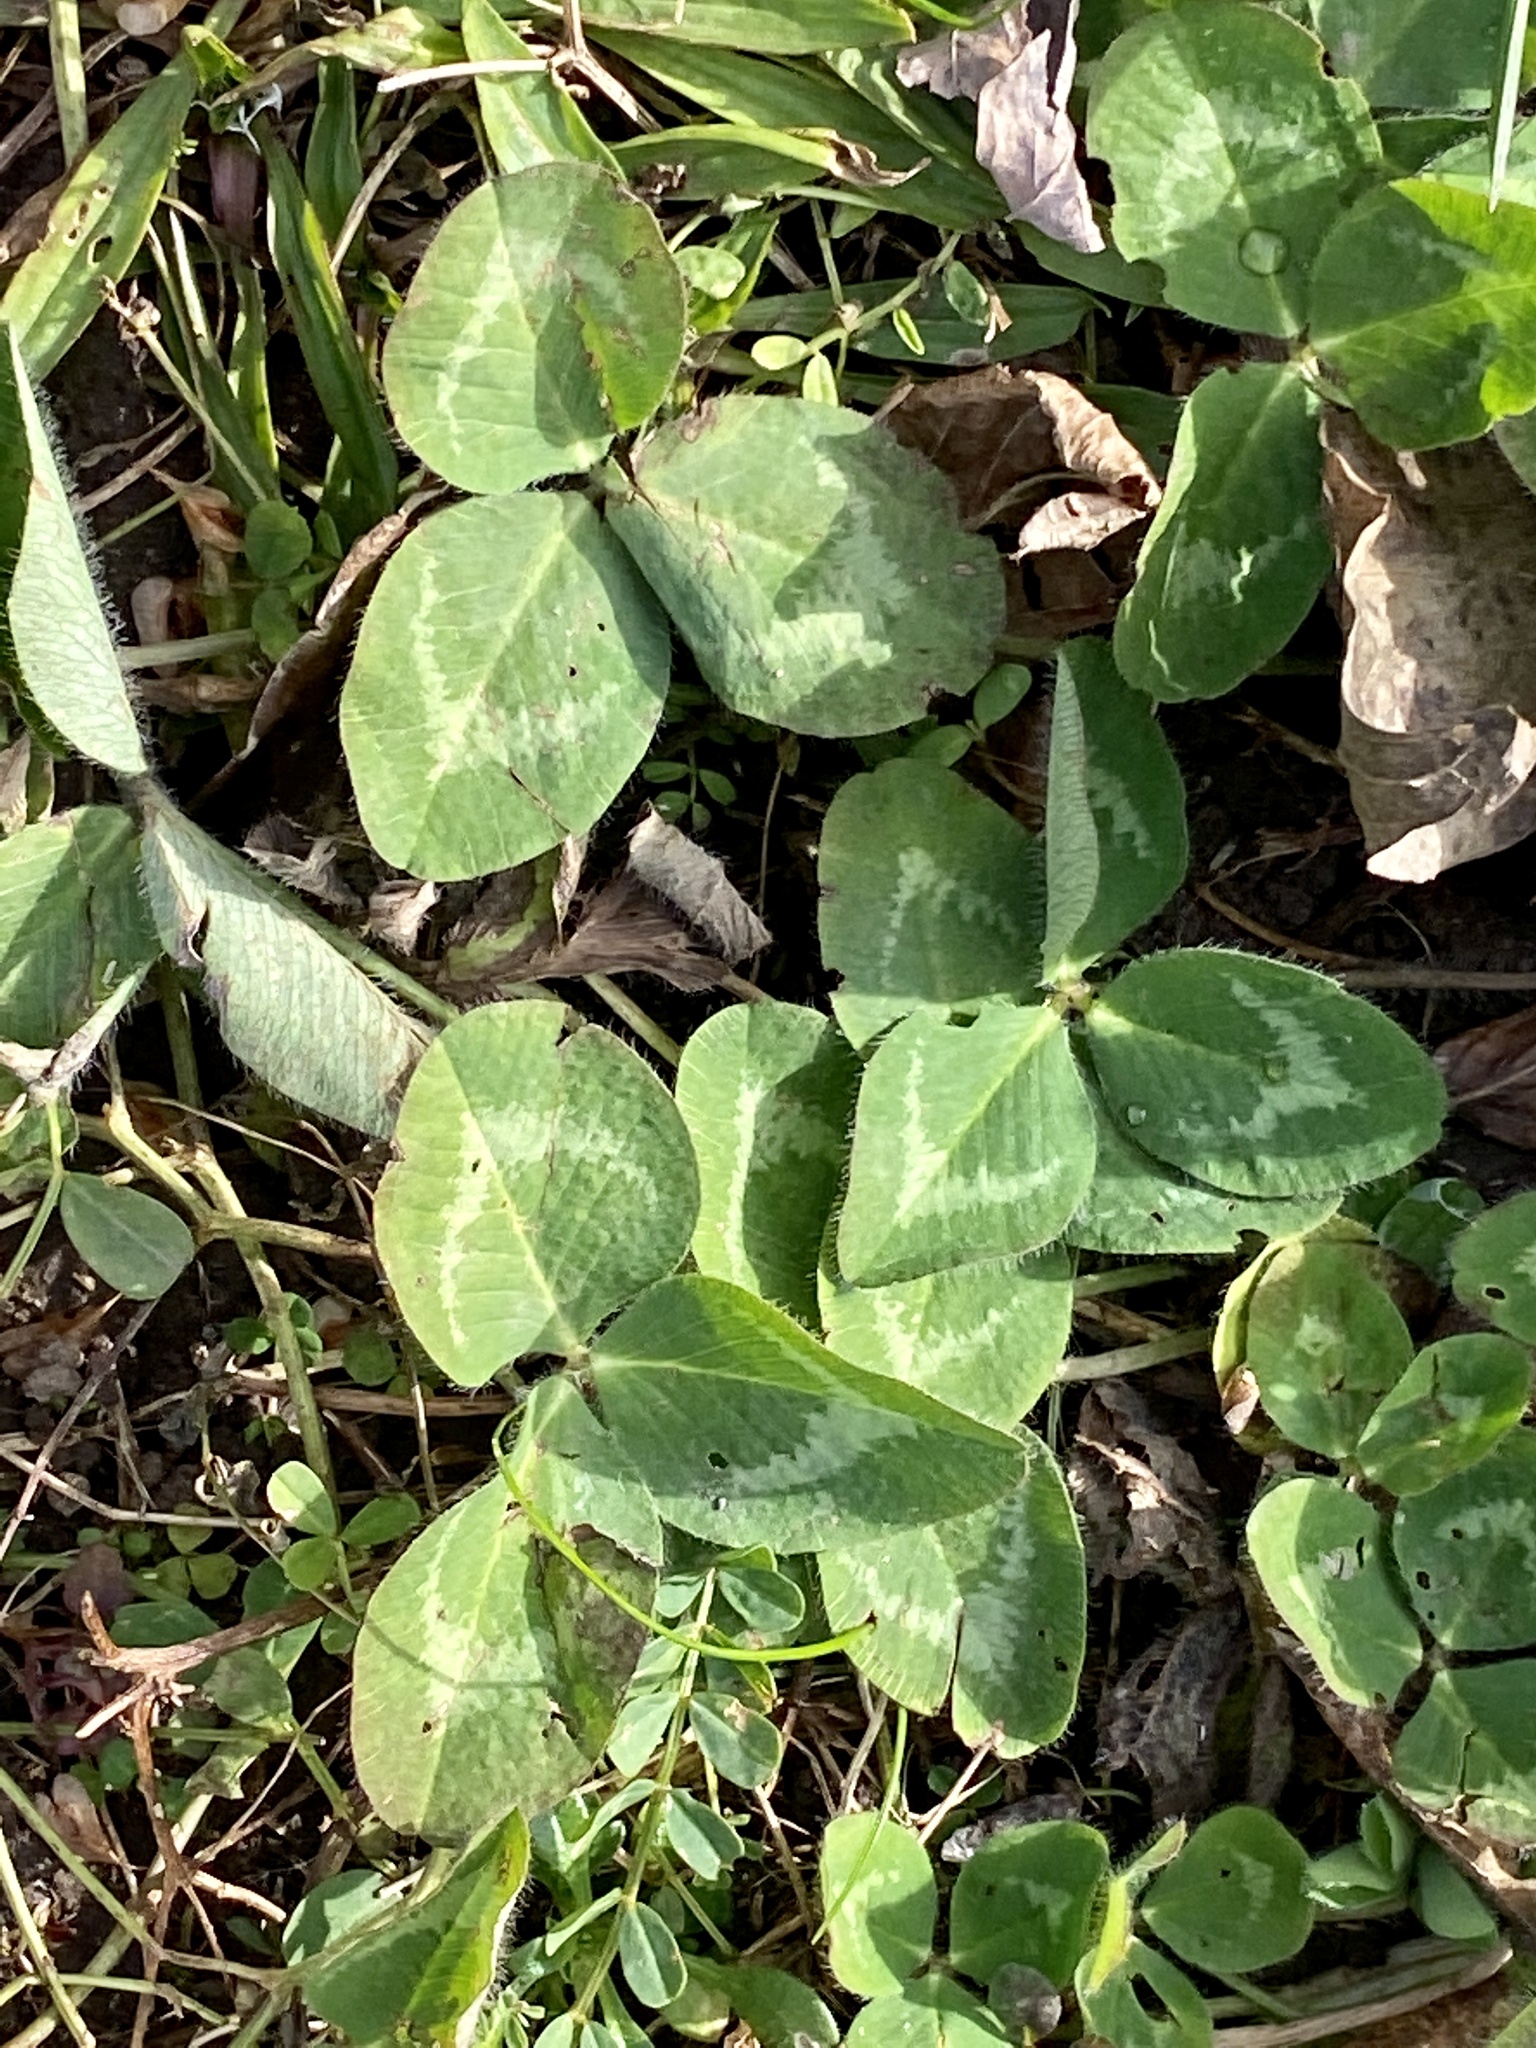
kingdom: Plantae
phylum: Tracheophyta
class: Magnoliopsida
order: Fabales
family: Fabaceae
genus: Trifolium
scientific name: Trifolium pratense
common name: Red clover
